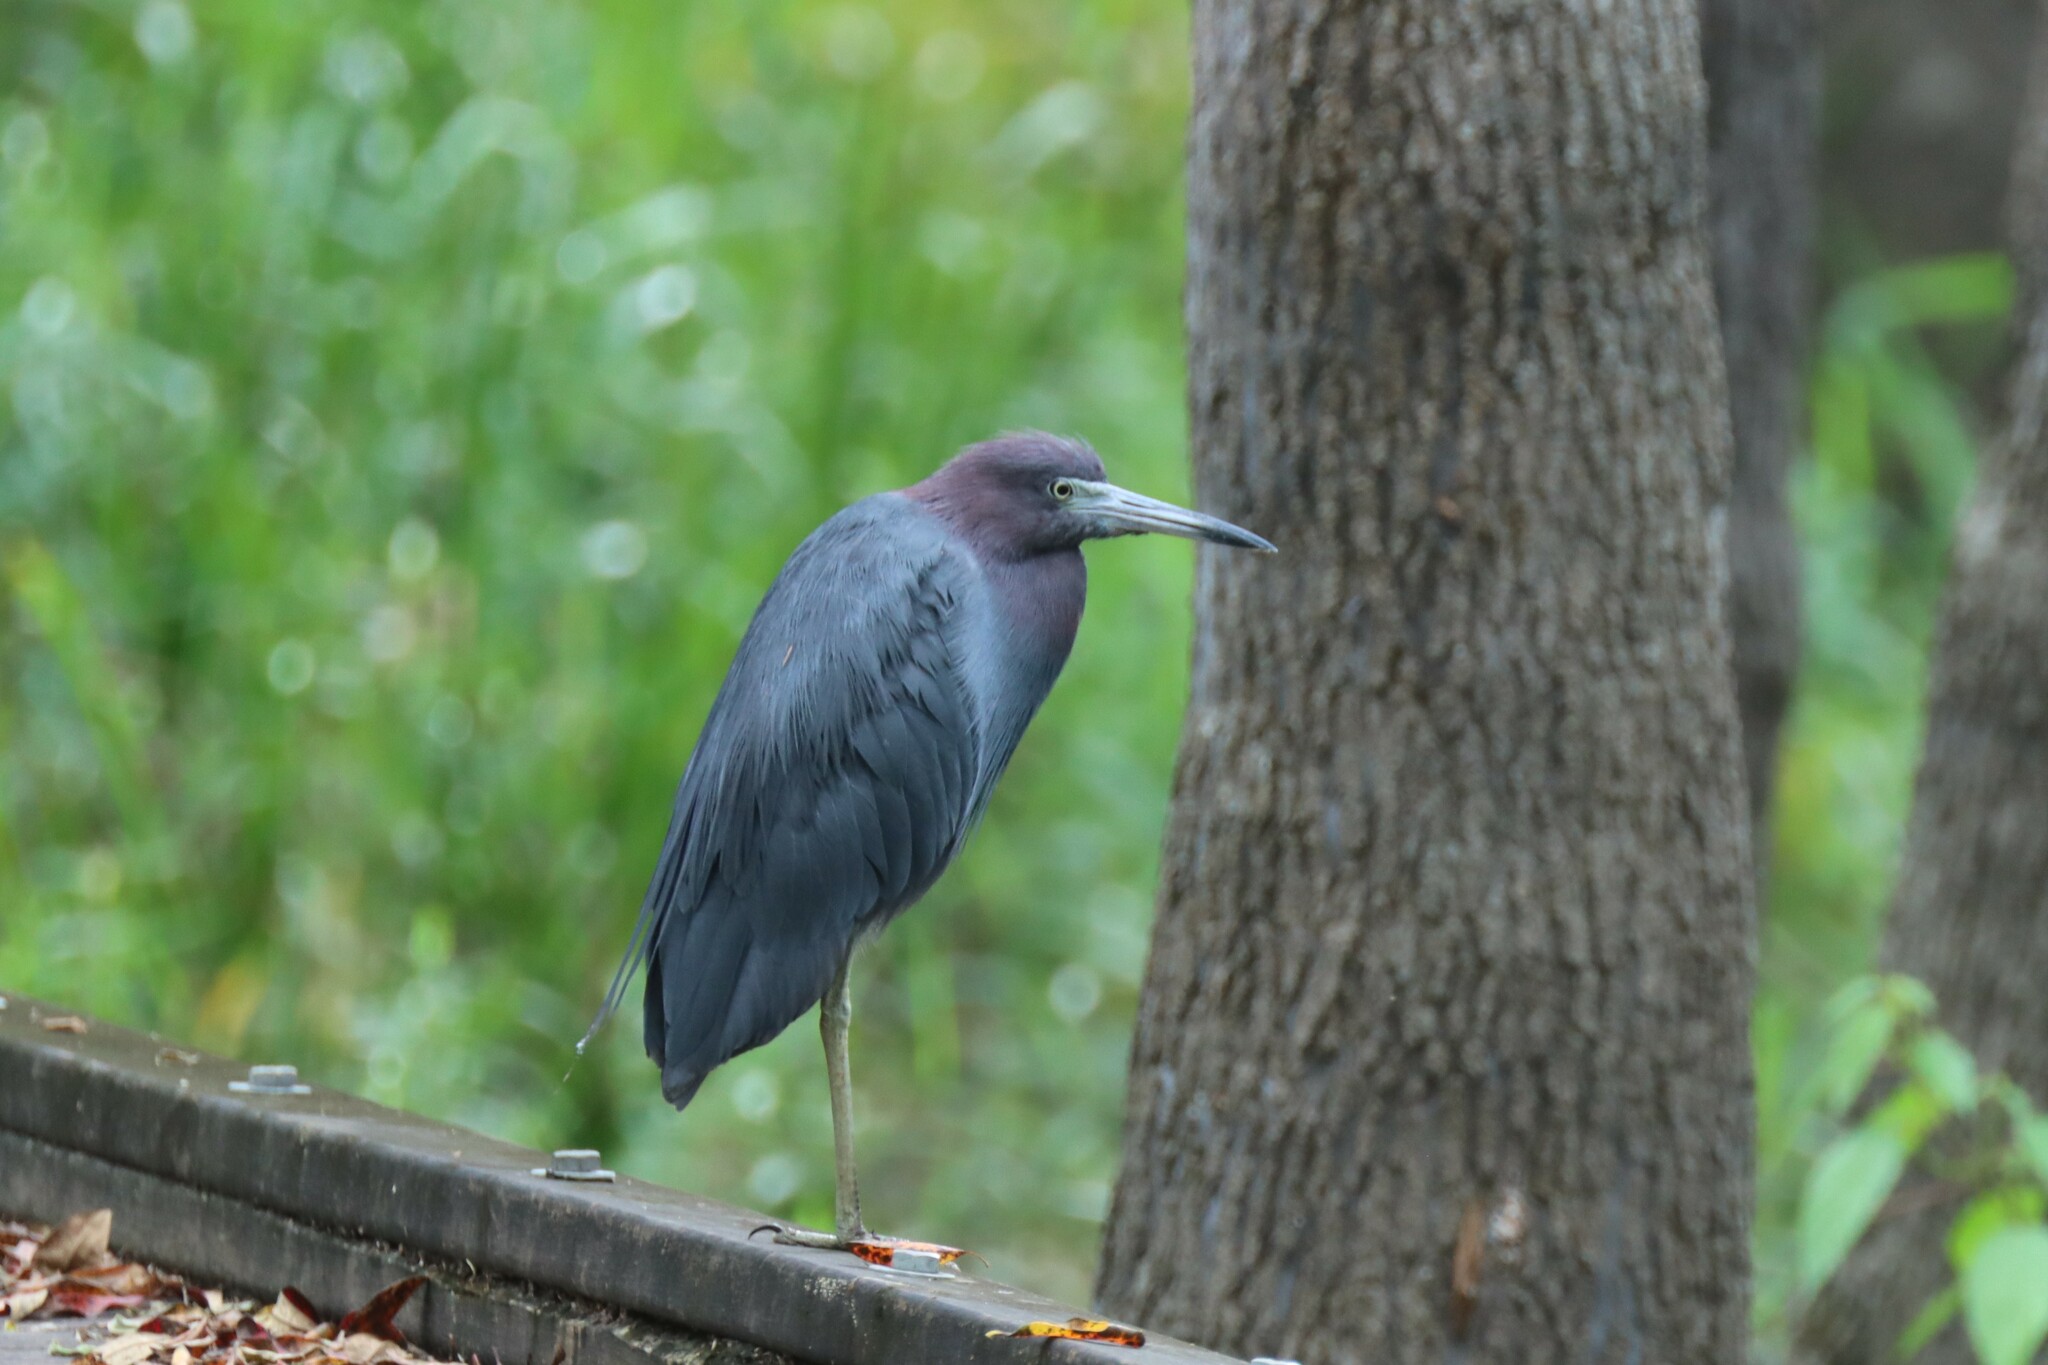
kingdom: Animalia
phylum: Chordata
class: Aves
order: Pelecaniformes
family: Ardeidae
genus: Egretta
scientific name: Egretta caerulea
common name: Little blue heron
